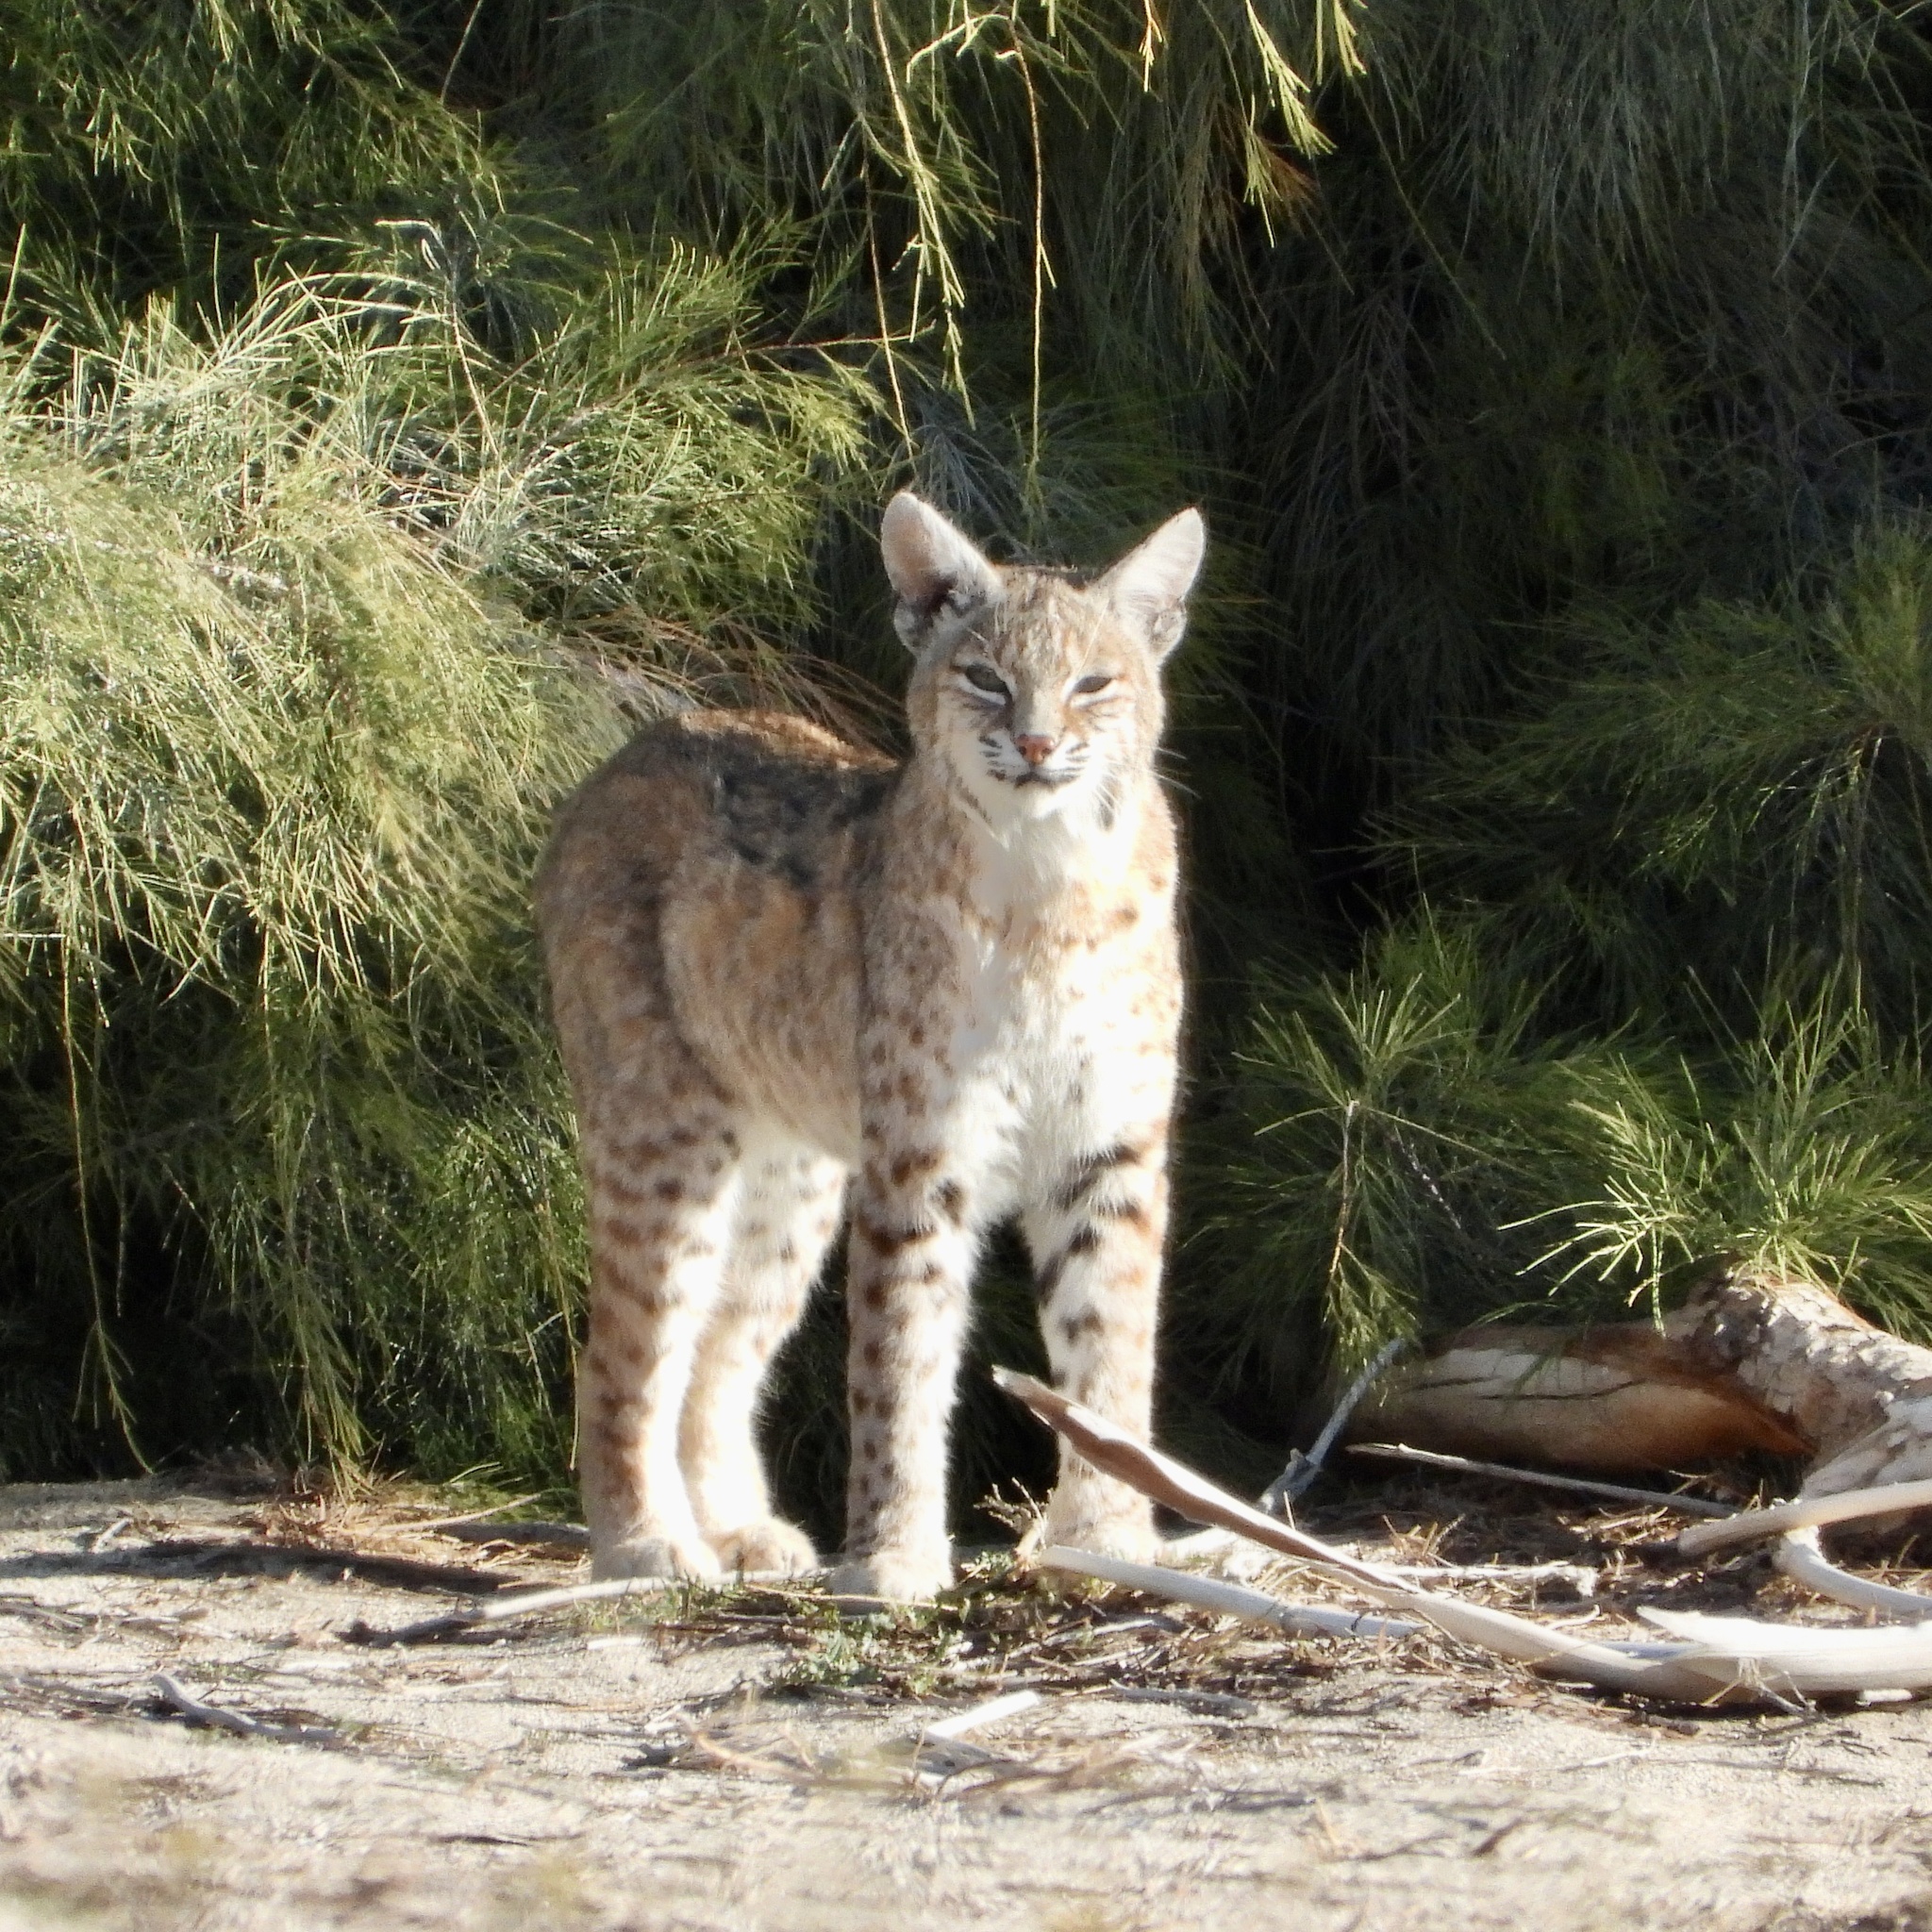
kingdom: Animalia
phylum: Chordata
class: Mammalia
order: Carnivora
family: Felidae
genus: Lynx
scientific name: Lynx rufus
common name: Bobcat
